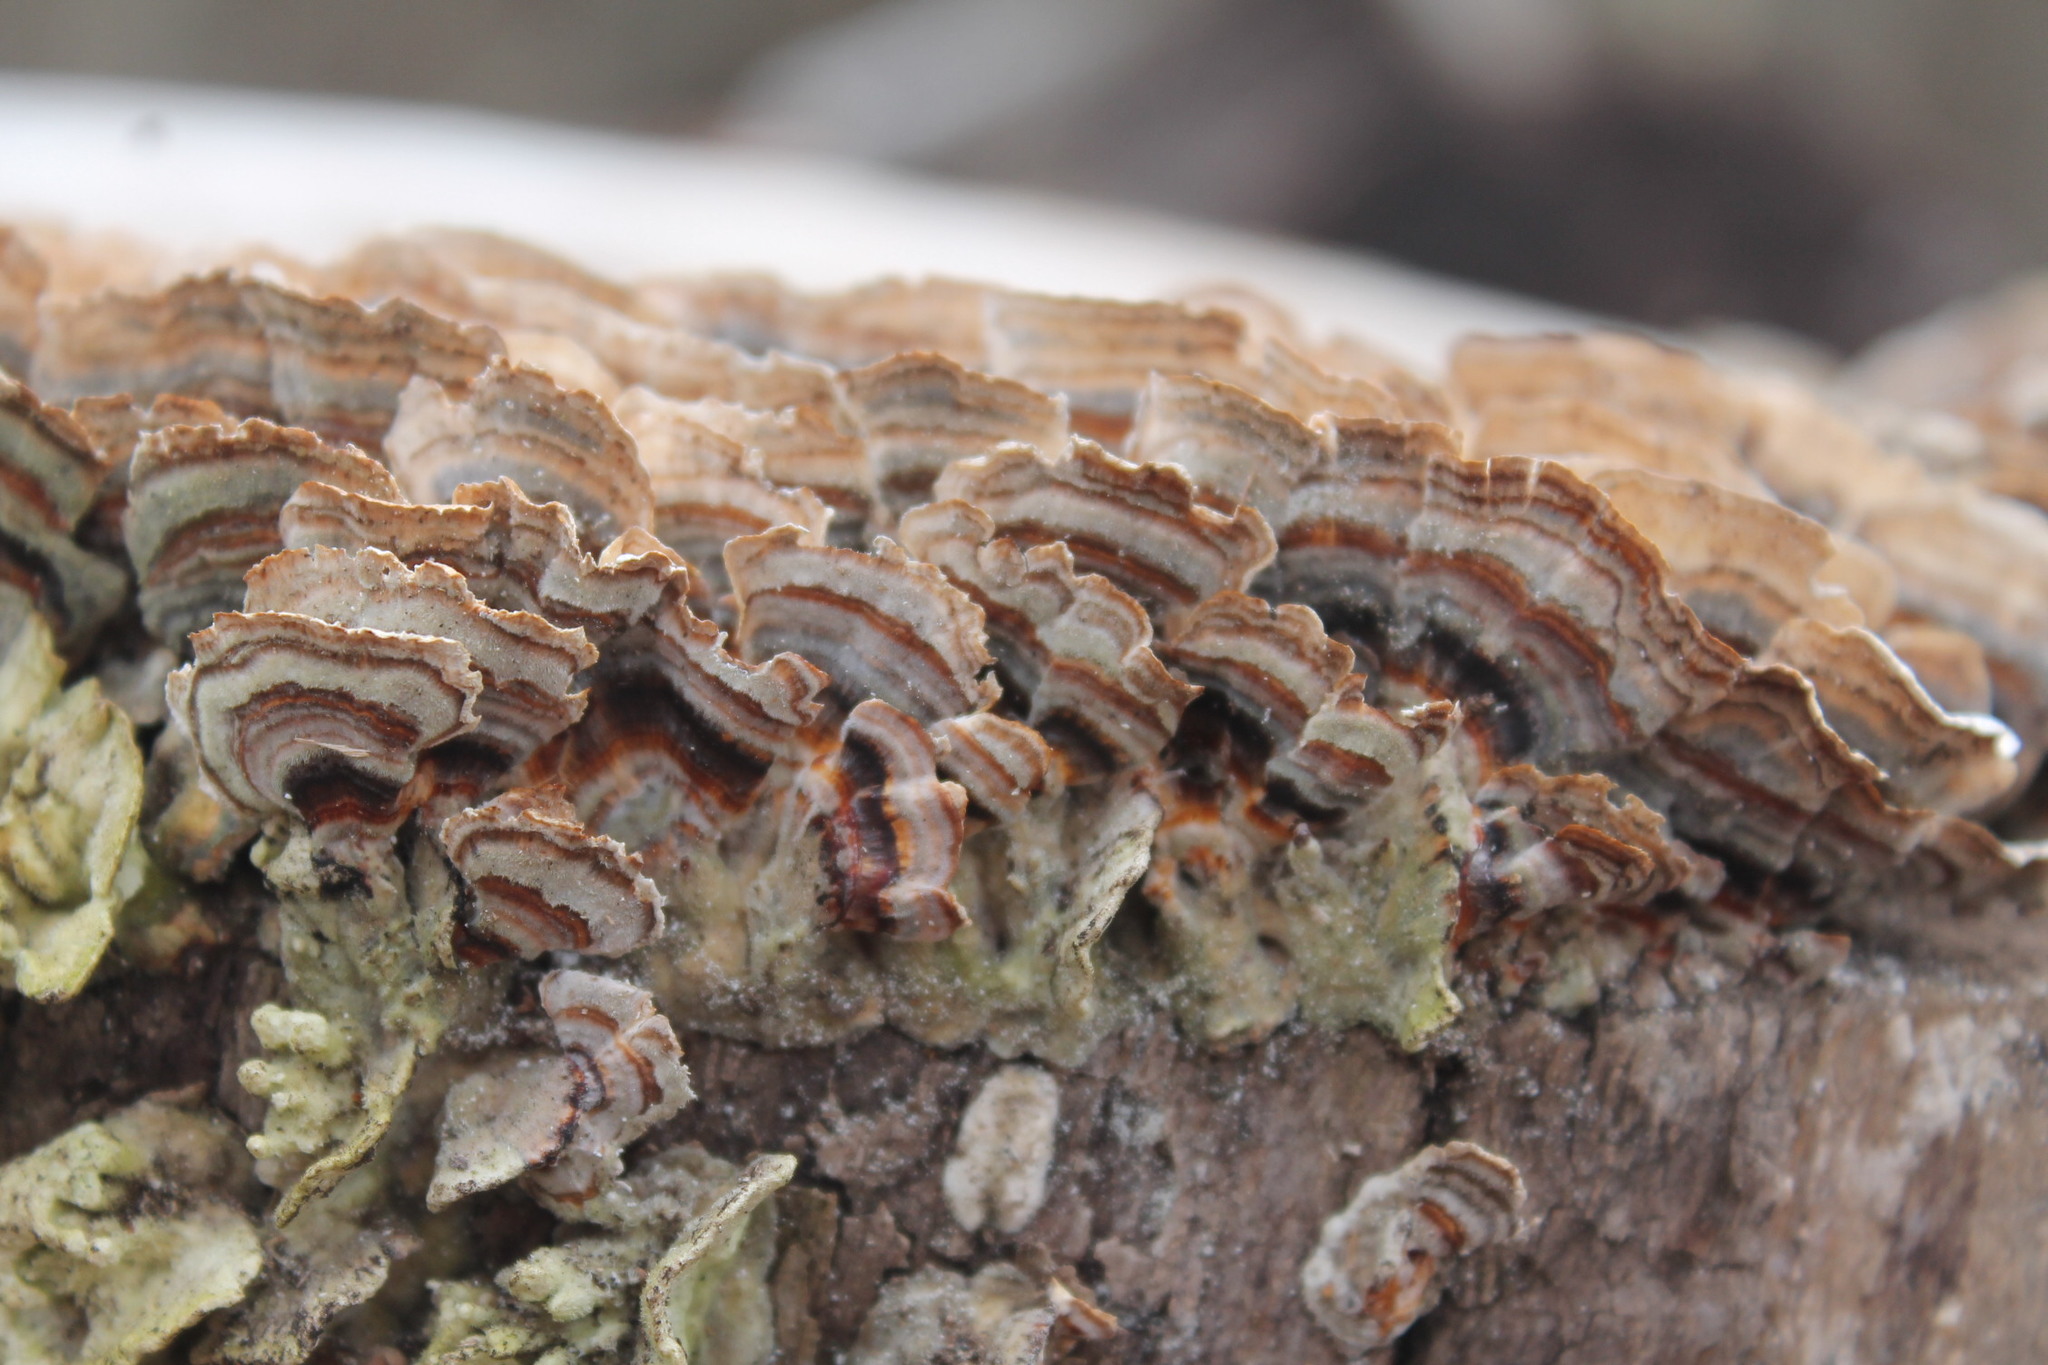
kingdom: Fungi
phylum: Basidiomycota
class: Agaricomycetes
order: Polyporales
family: Polyporaceae
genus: Trametes
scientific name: Trametes versicolor
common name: Turkeytail
